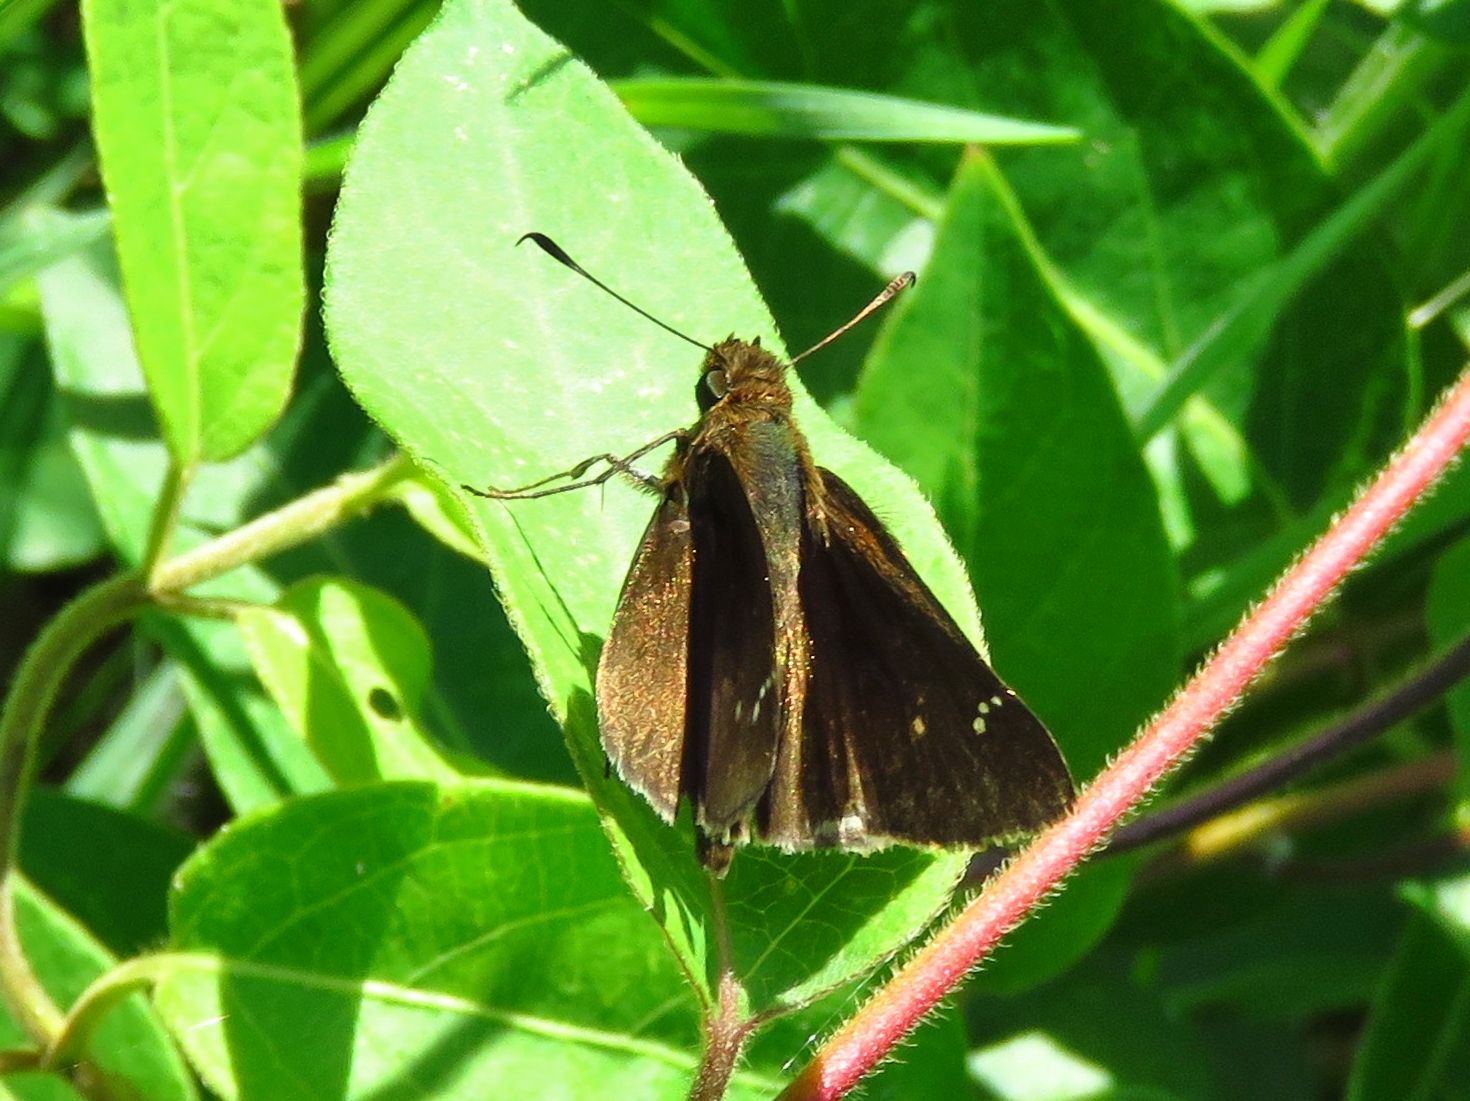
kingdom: Animalia
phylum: Arthropoda
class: Insecta
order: Lepidoptera
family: Hesperiidae
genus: Lerema
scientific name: Lerema accius
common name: Clouded skipper
